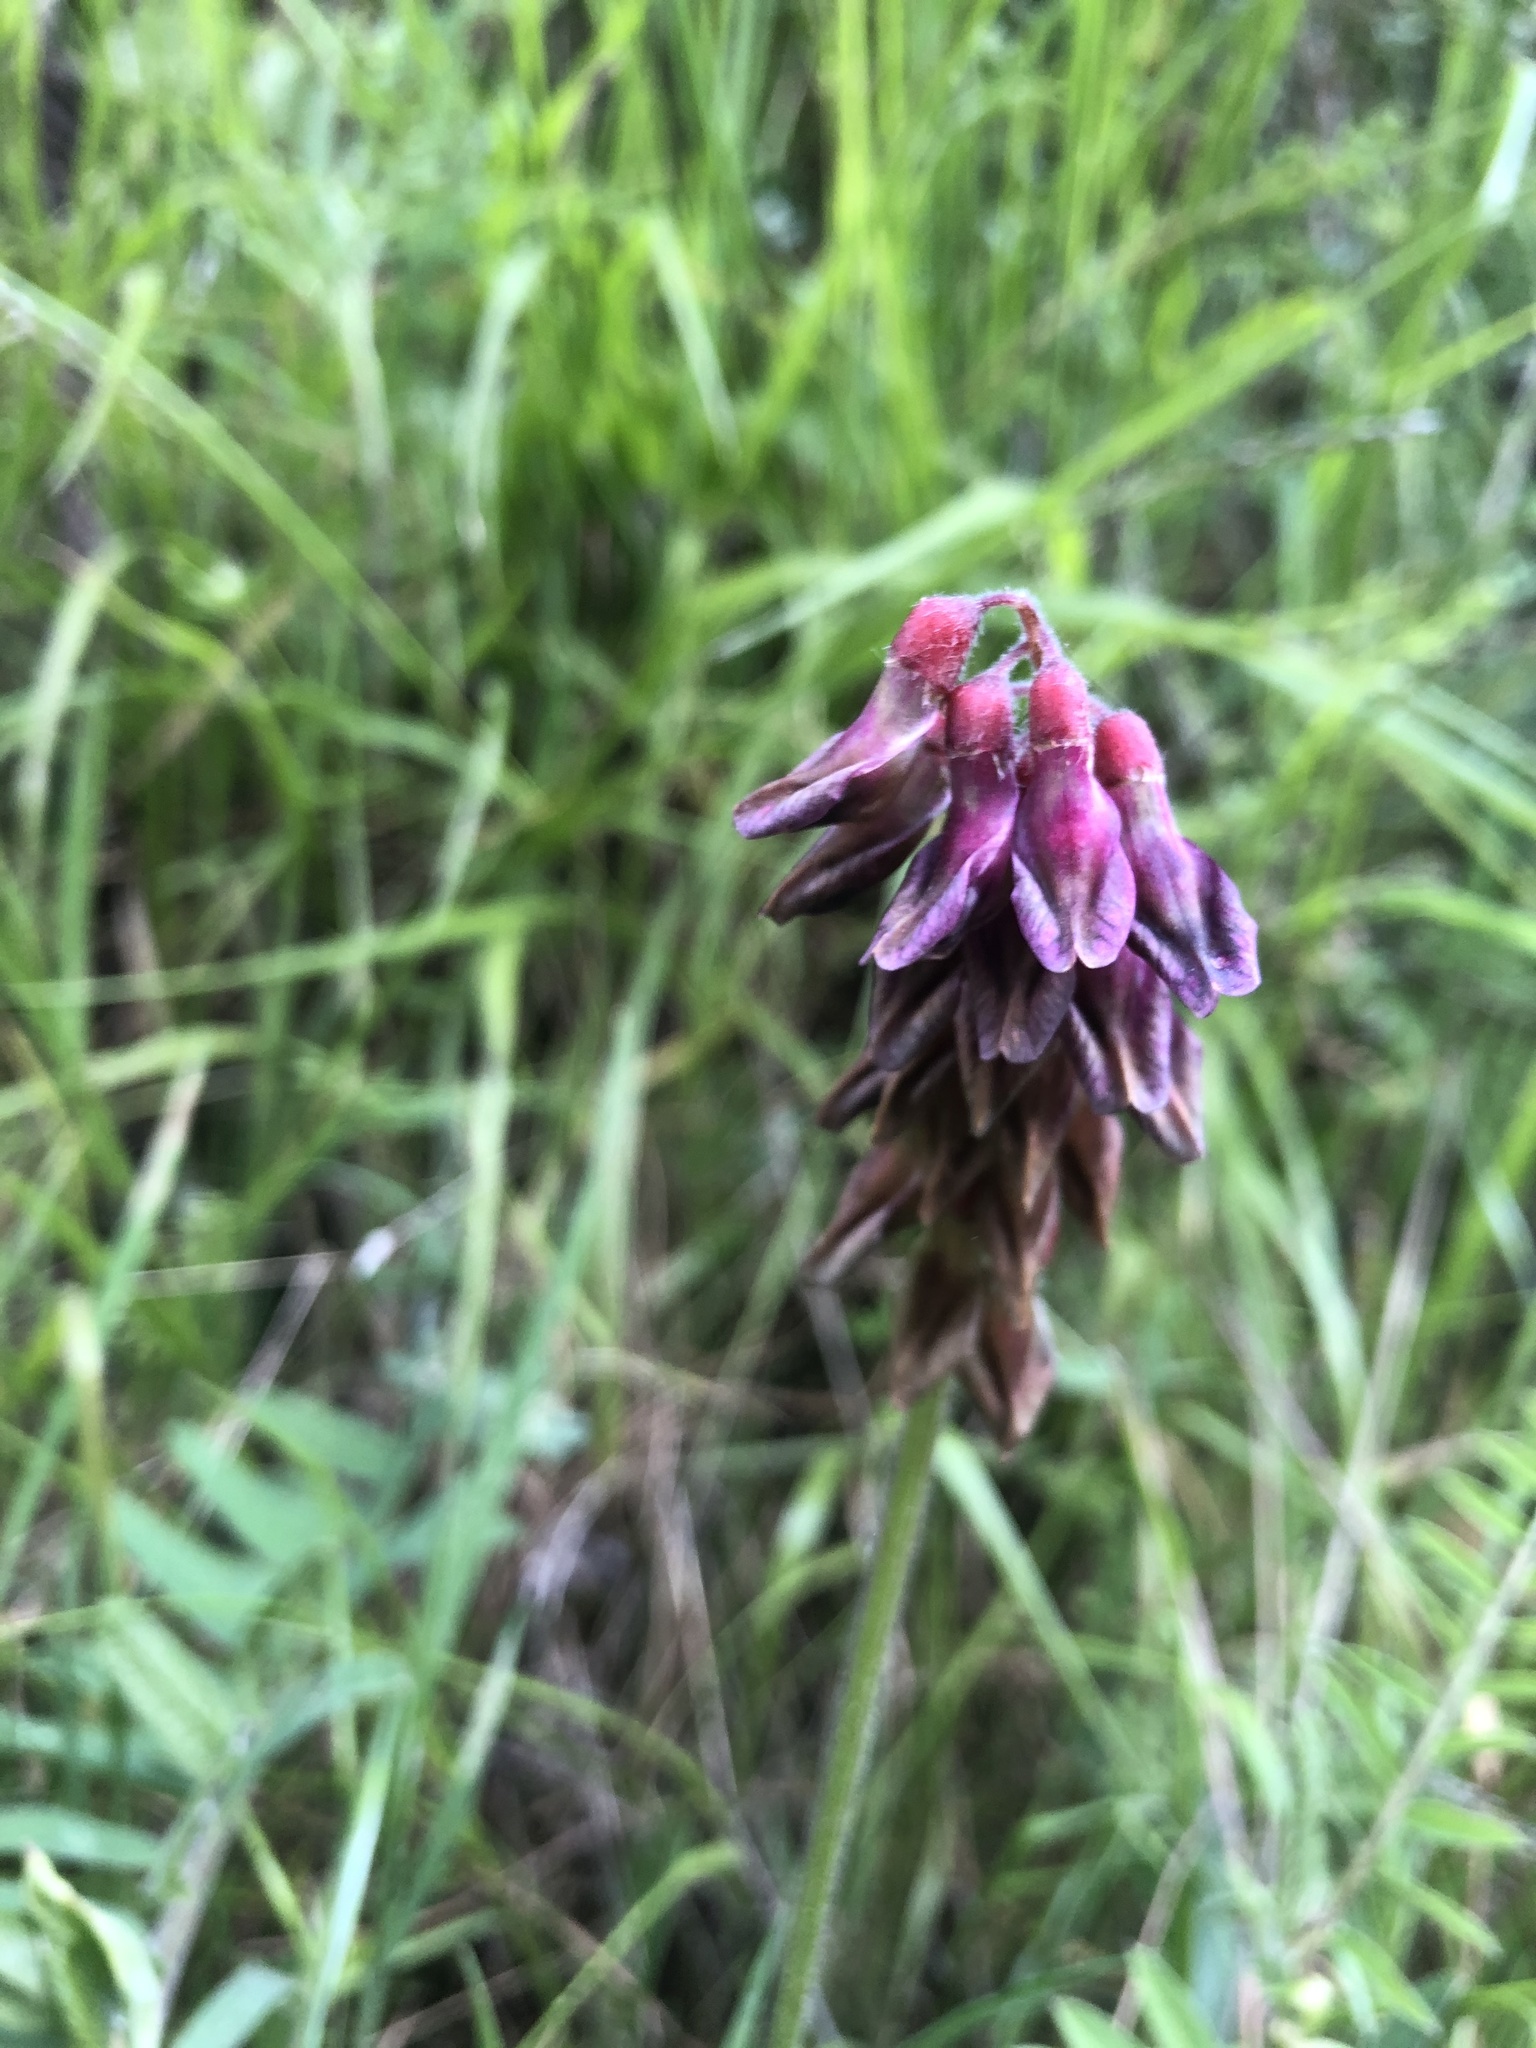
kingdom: Plantae
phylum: Tracheophyta
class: Magnoliopsida
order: Fabales
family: Fabaceae
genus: Vicia
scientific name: Vicia
